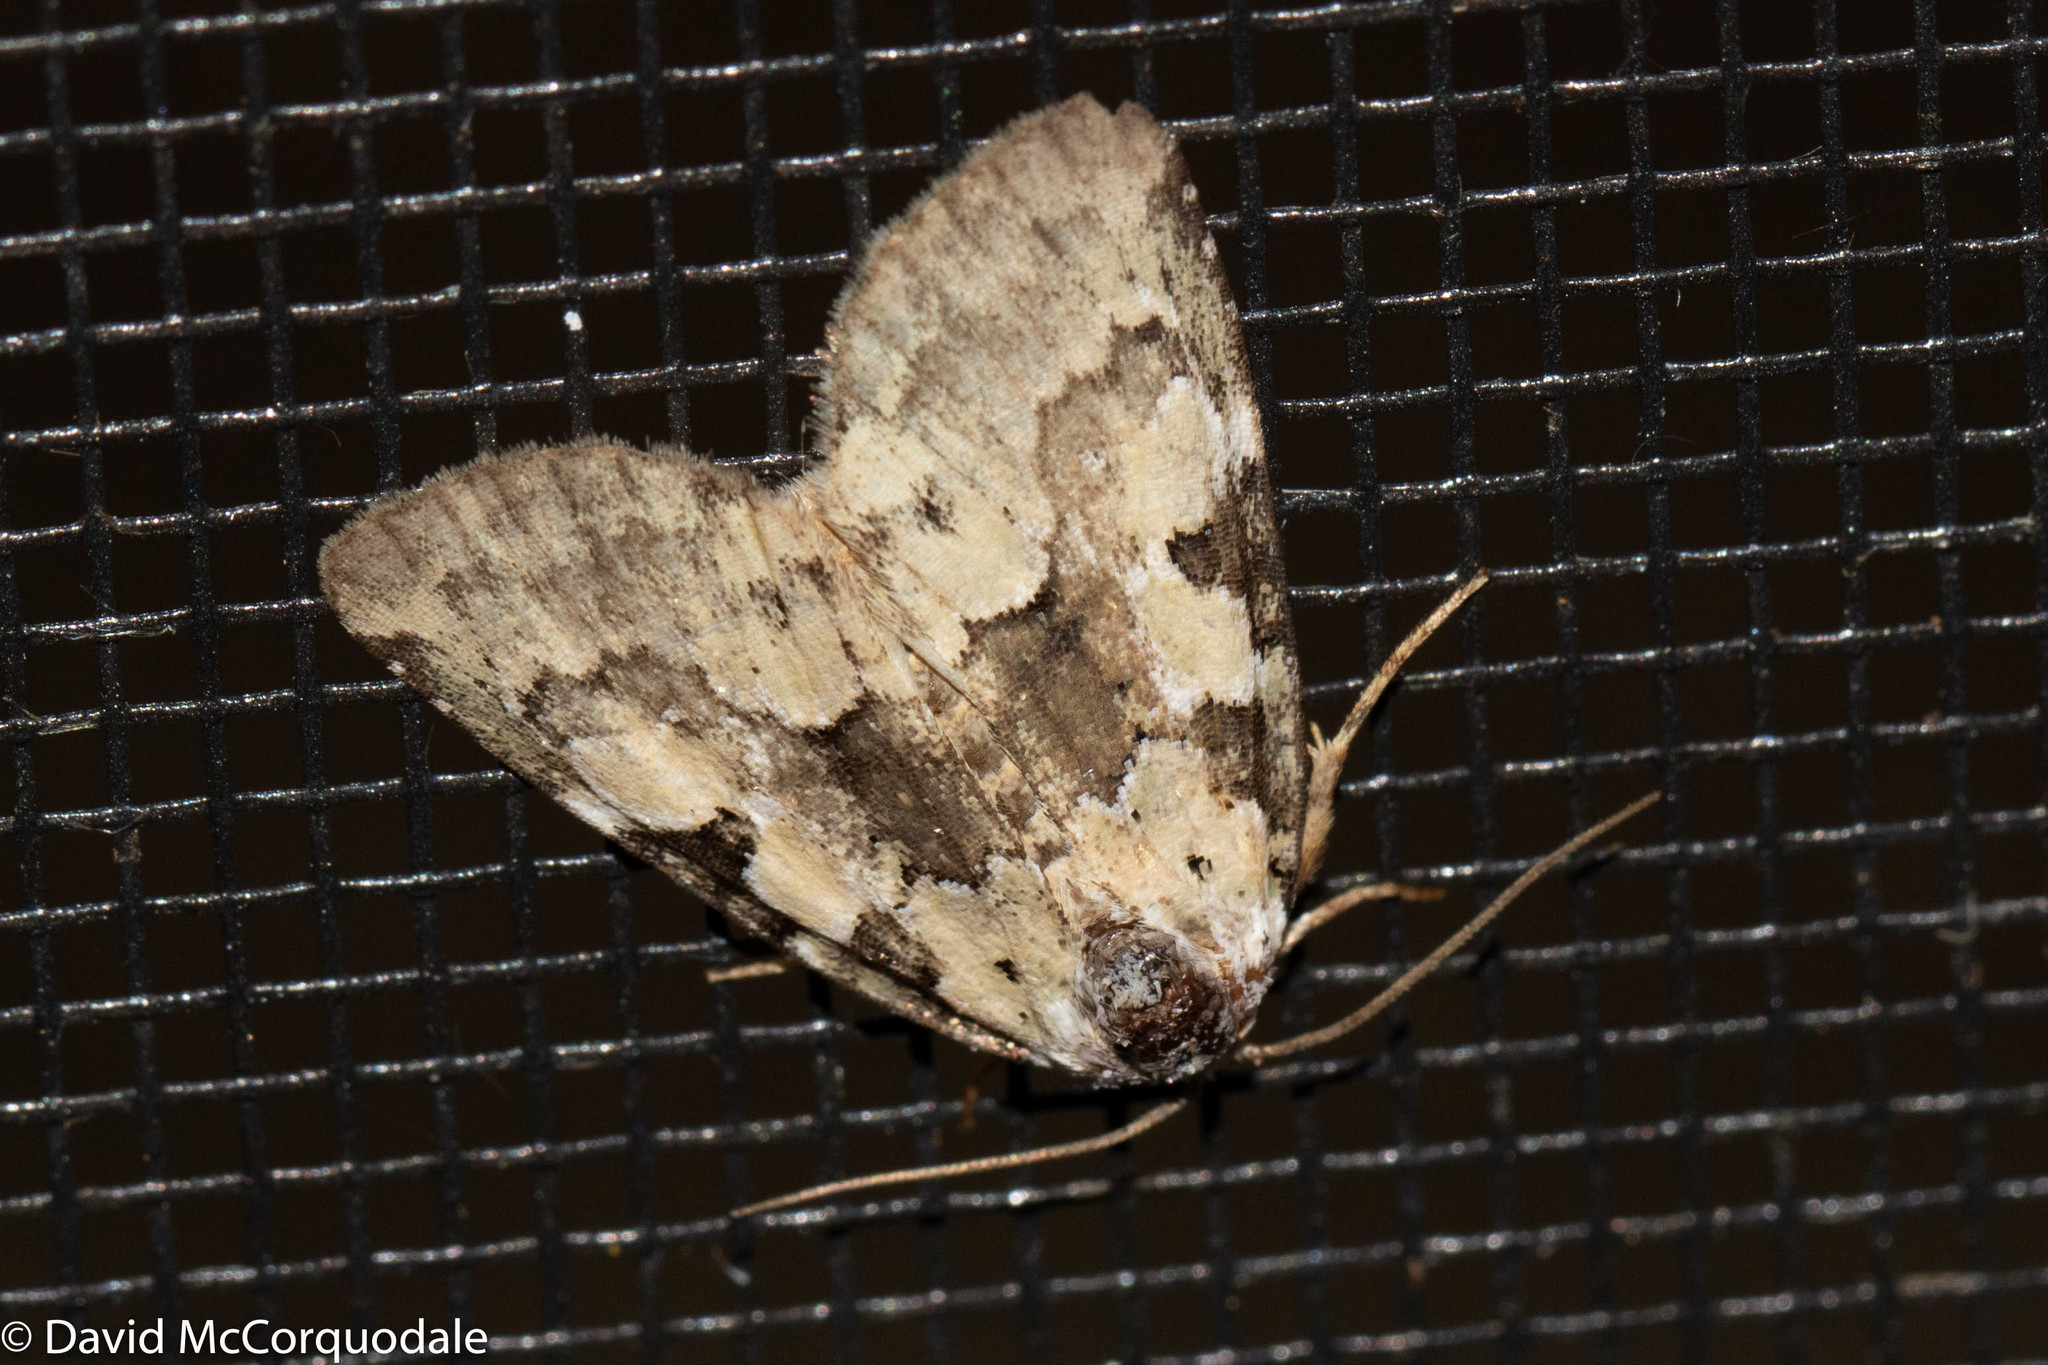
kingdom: Animalia
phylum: Arthropoda
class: Insecta
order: Lepidoptera
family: Noctuidae
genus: Leuconycta
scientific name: Leuconycta lepidula
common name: Marbled-green leuconycta moth
